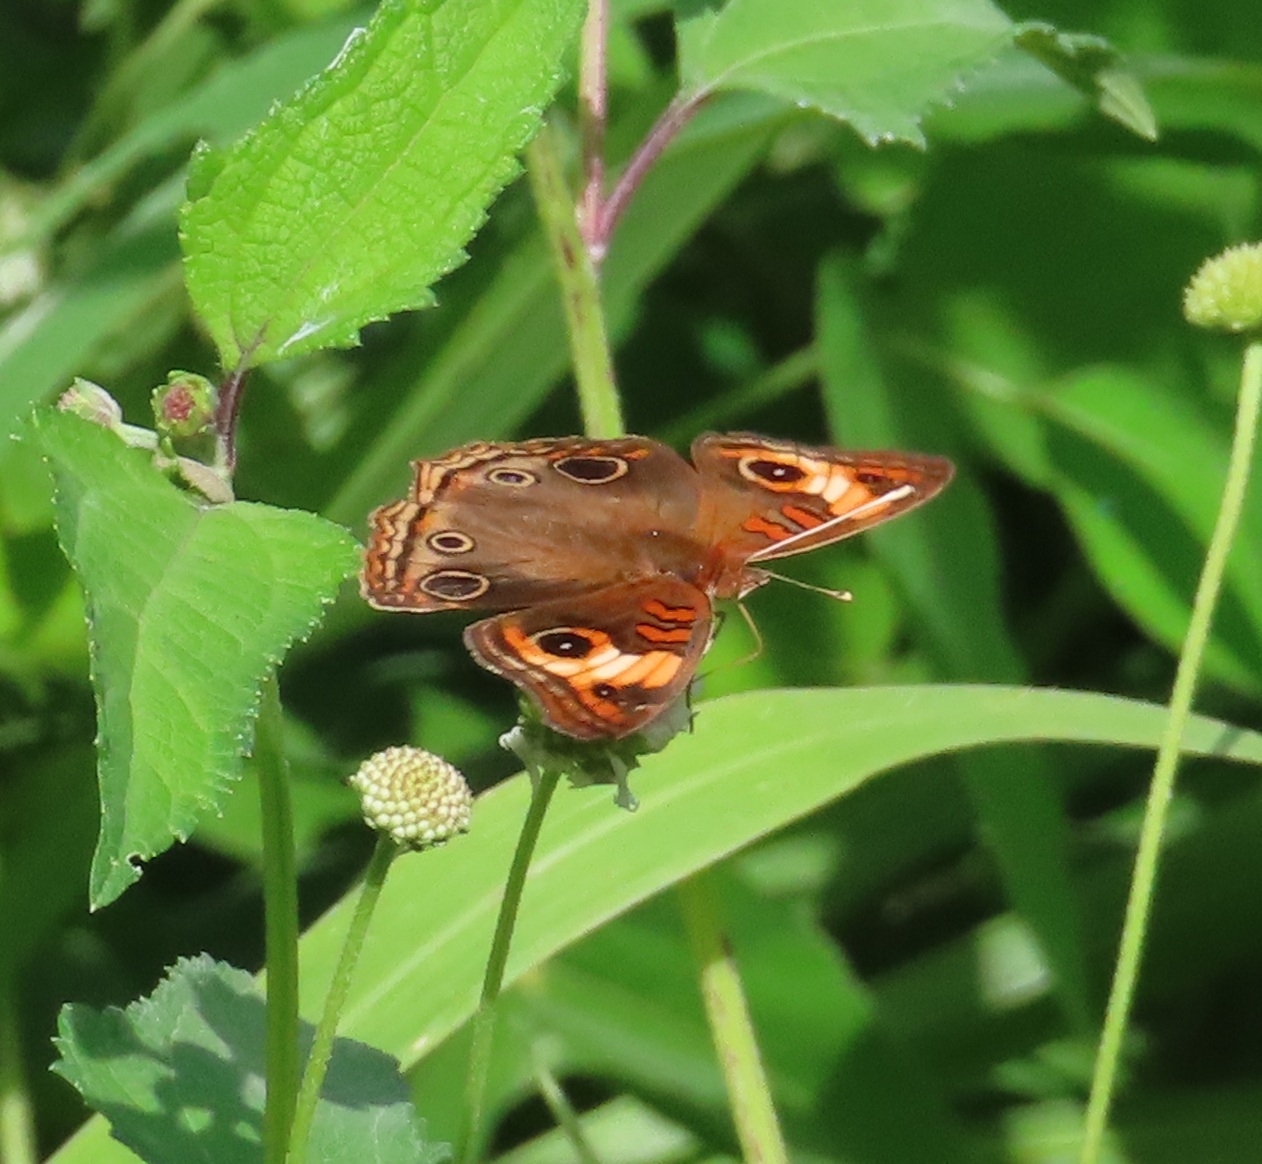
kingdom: Animalia
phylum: Arthropoda
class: Insecta
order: Lepidoptera
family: Nymphalidae
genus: Junonia
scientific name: Junonia lavinia
